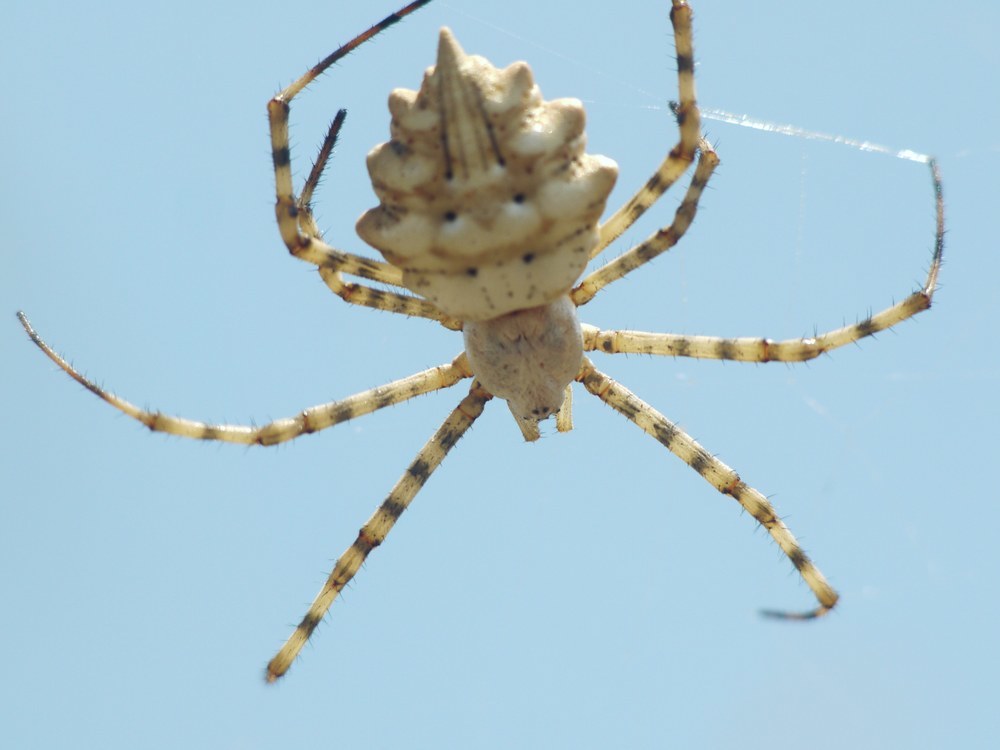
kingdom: Animalia
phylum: Arthropoda
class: Arachnida
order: Araneae
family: Araneidae
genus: Argiope
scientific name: Argiope lobata
